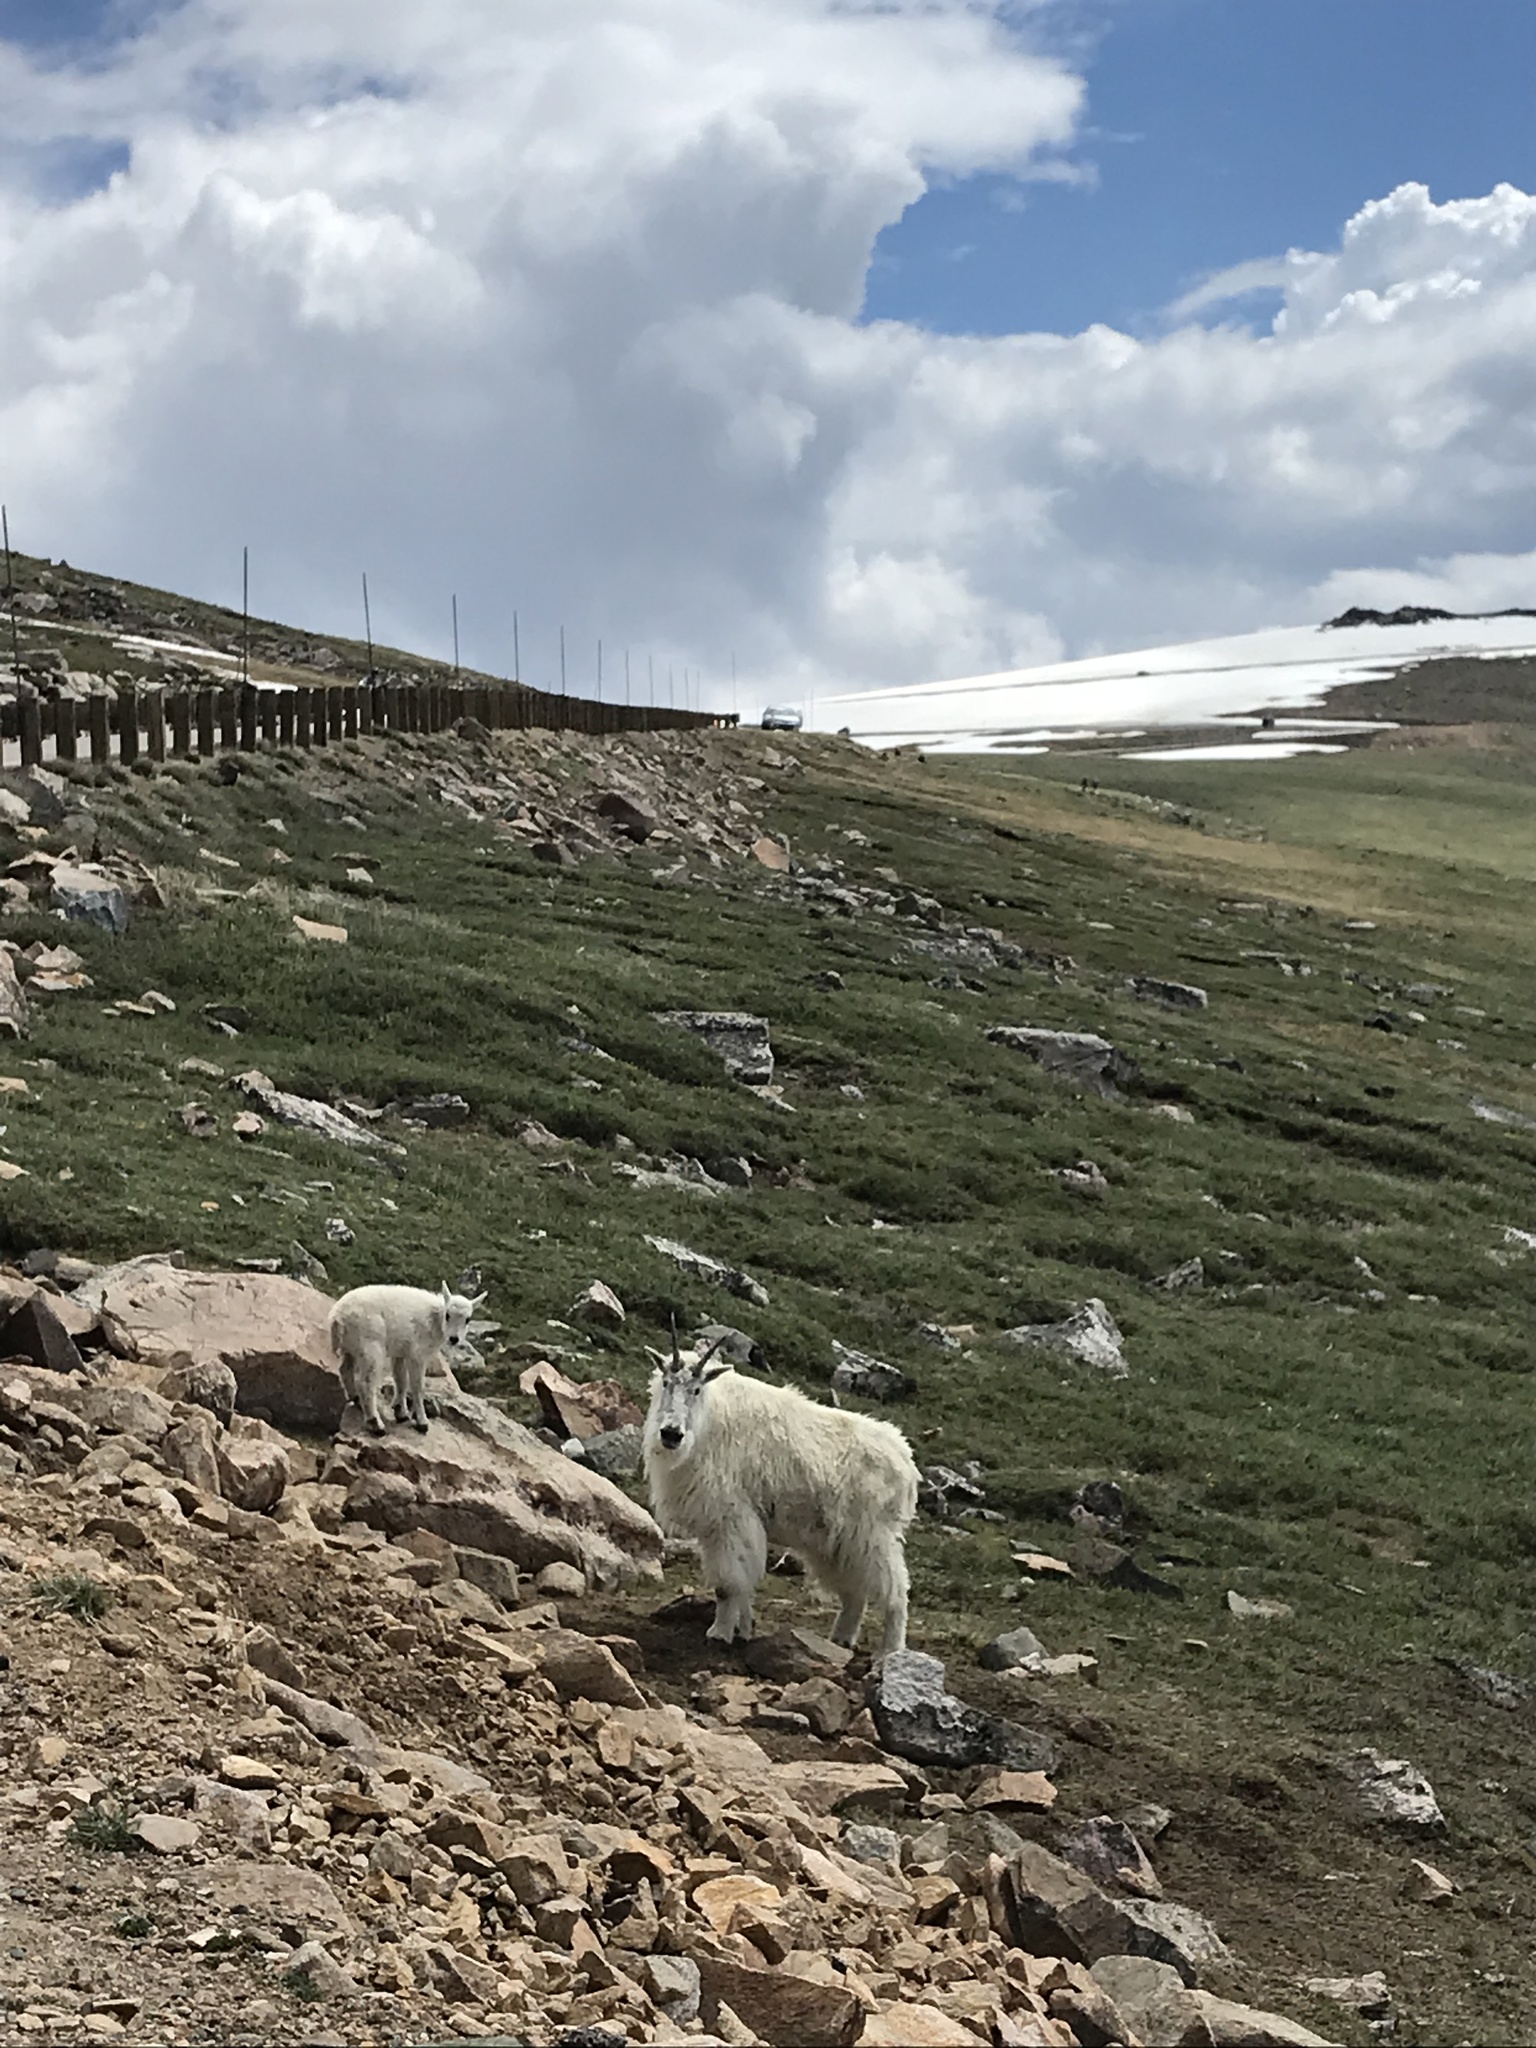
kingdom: Animalia
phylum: Chordata
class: Mammalia
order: Artiodactyla
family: Bovidae
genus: Oreamnos
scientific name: Oreamnos americanus
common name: Mountain goat
